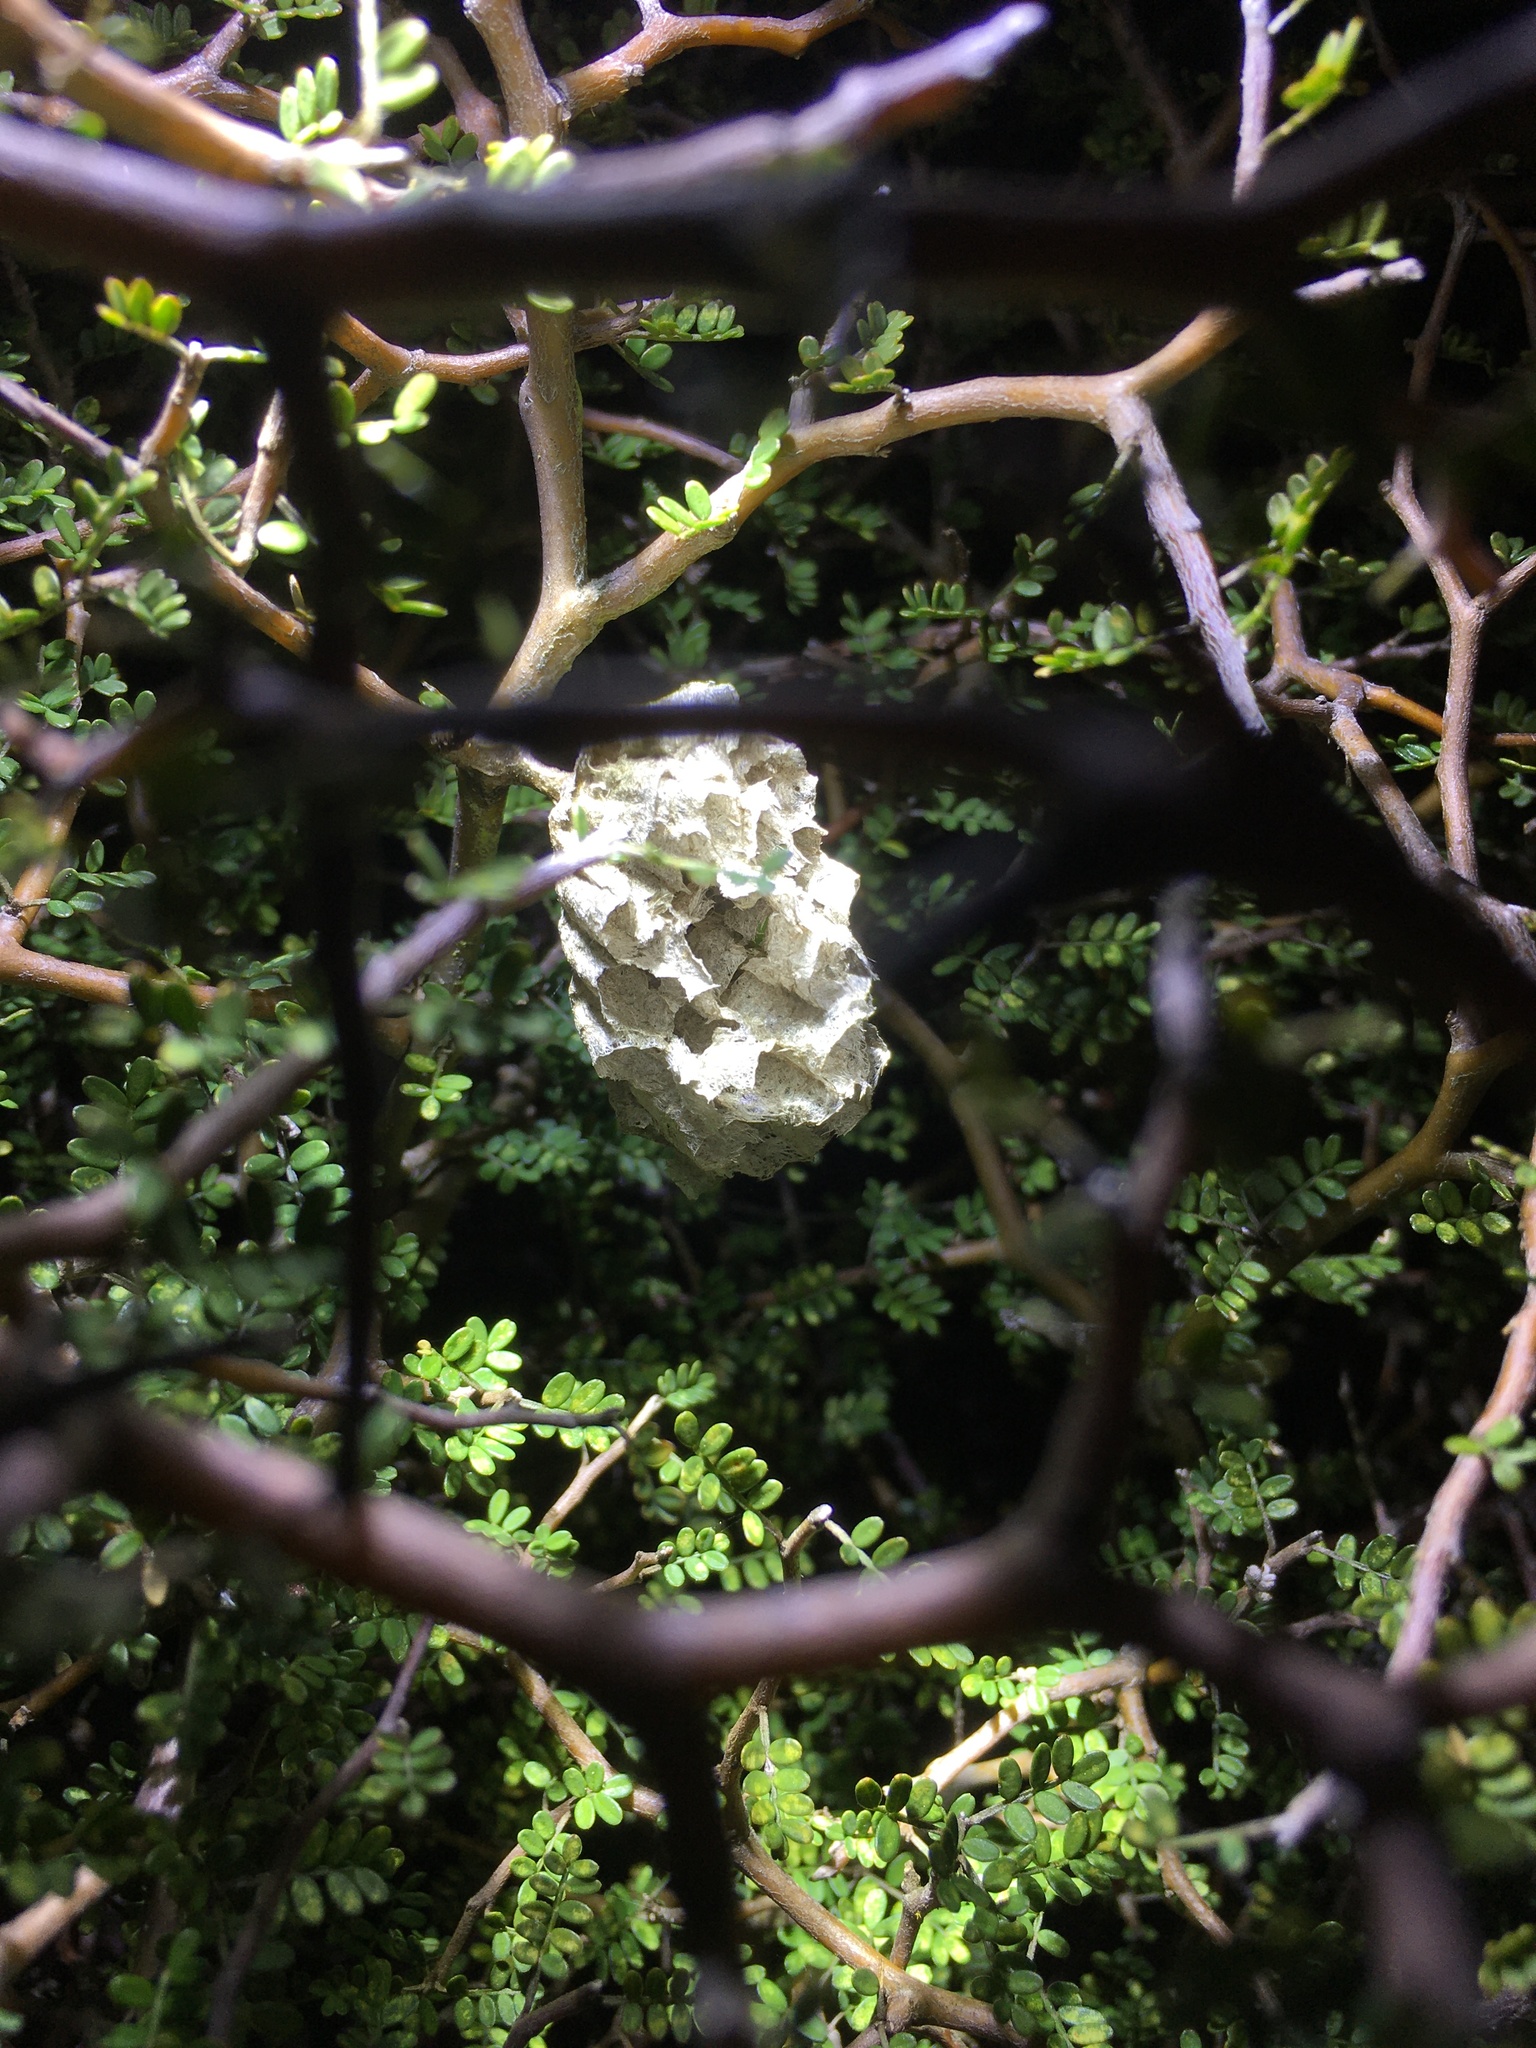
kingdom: Animalia
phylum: Arthropoda
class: Insecta
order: Hymenoptera
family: Eumenidae
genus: Polistes
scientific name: Polistes
